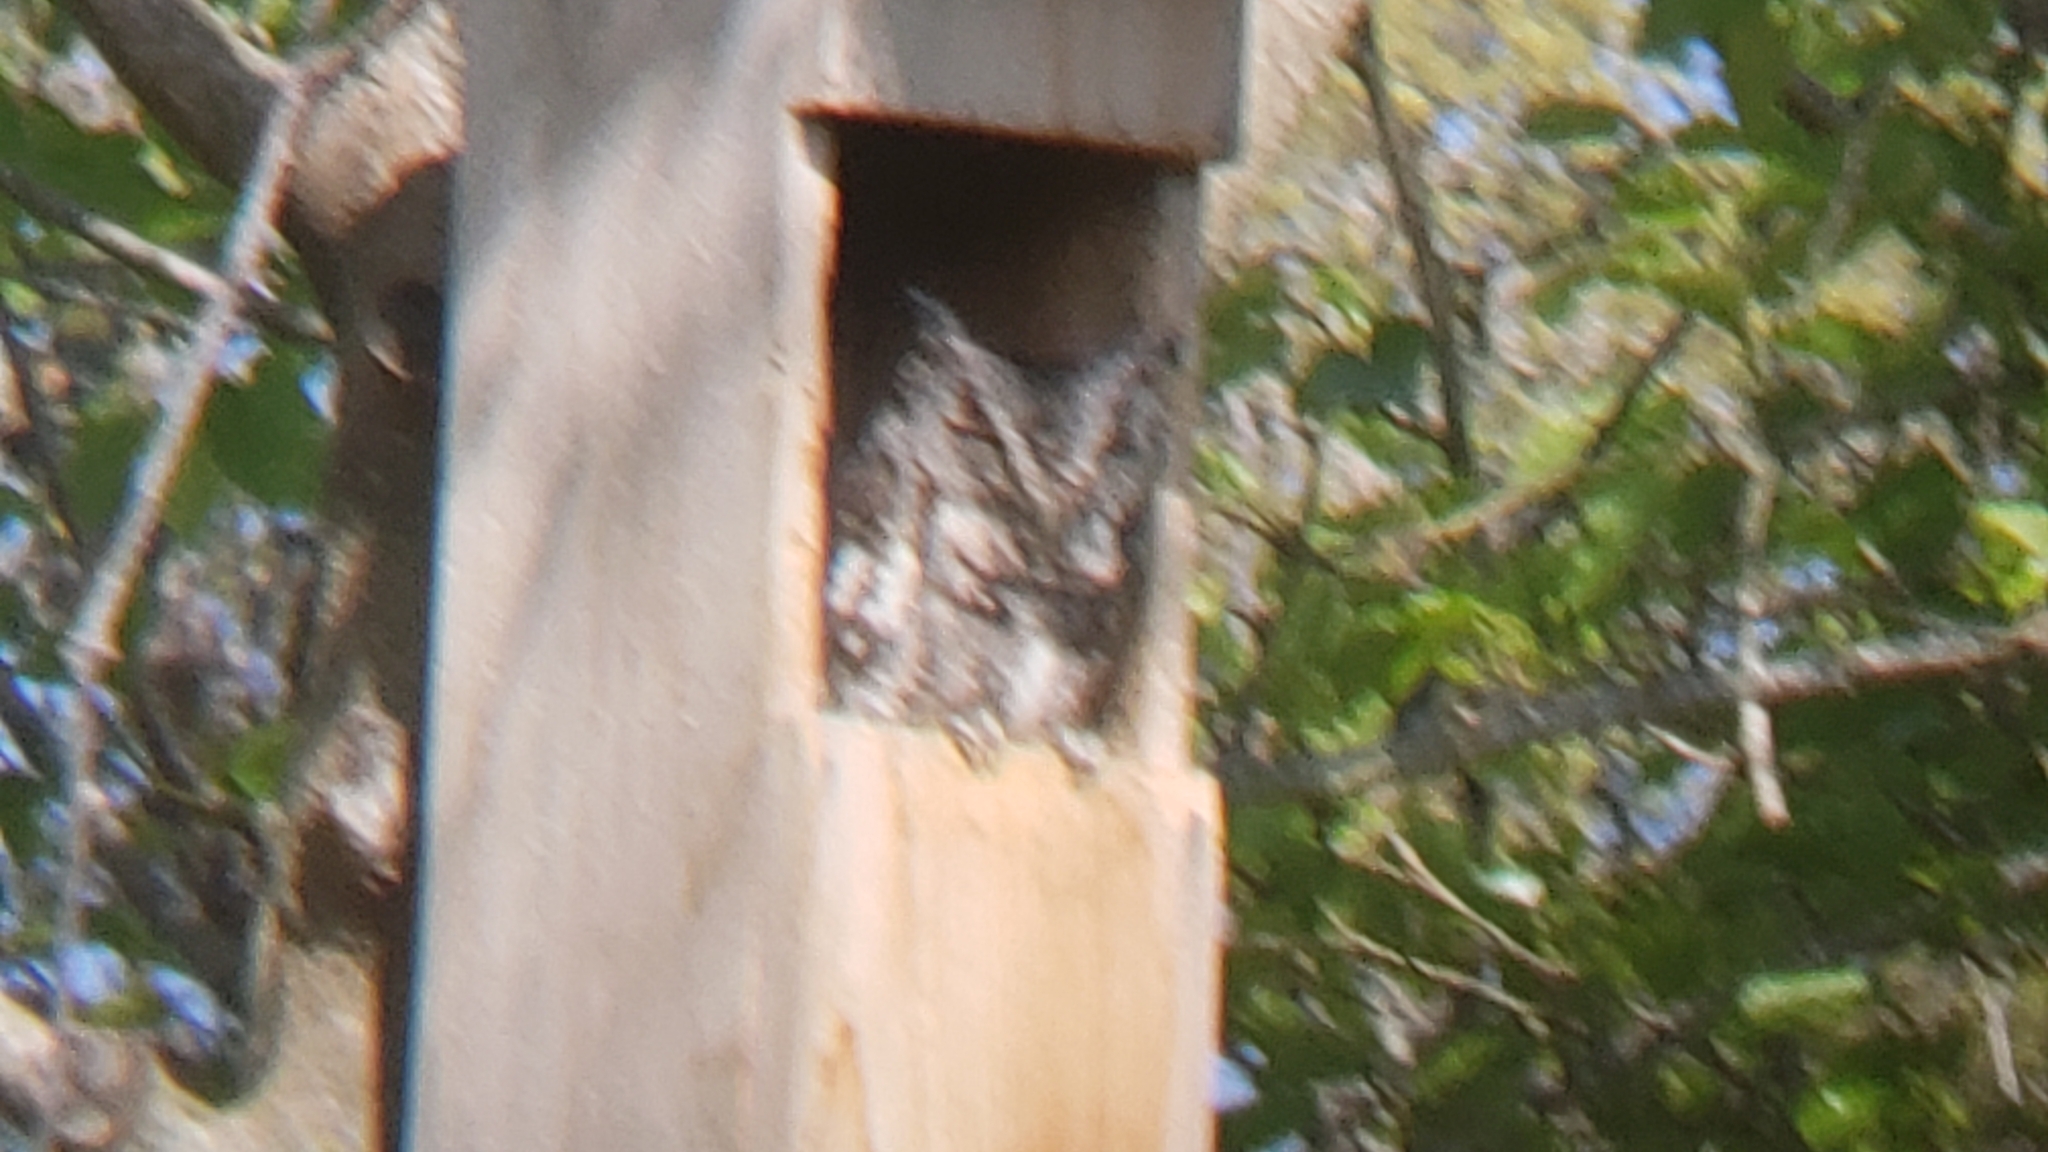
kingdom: Animalia
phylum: Chordata
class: Aves
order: Strigiformes
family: Strigidae
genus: Megascops
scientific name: Megascops asio
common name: Eastern screech-owl
